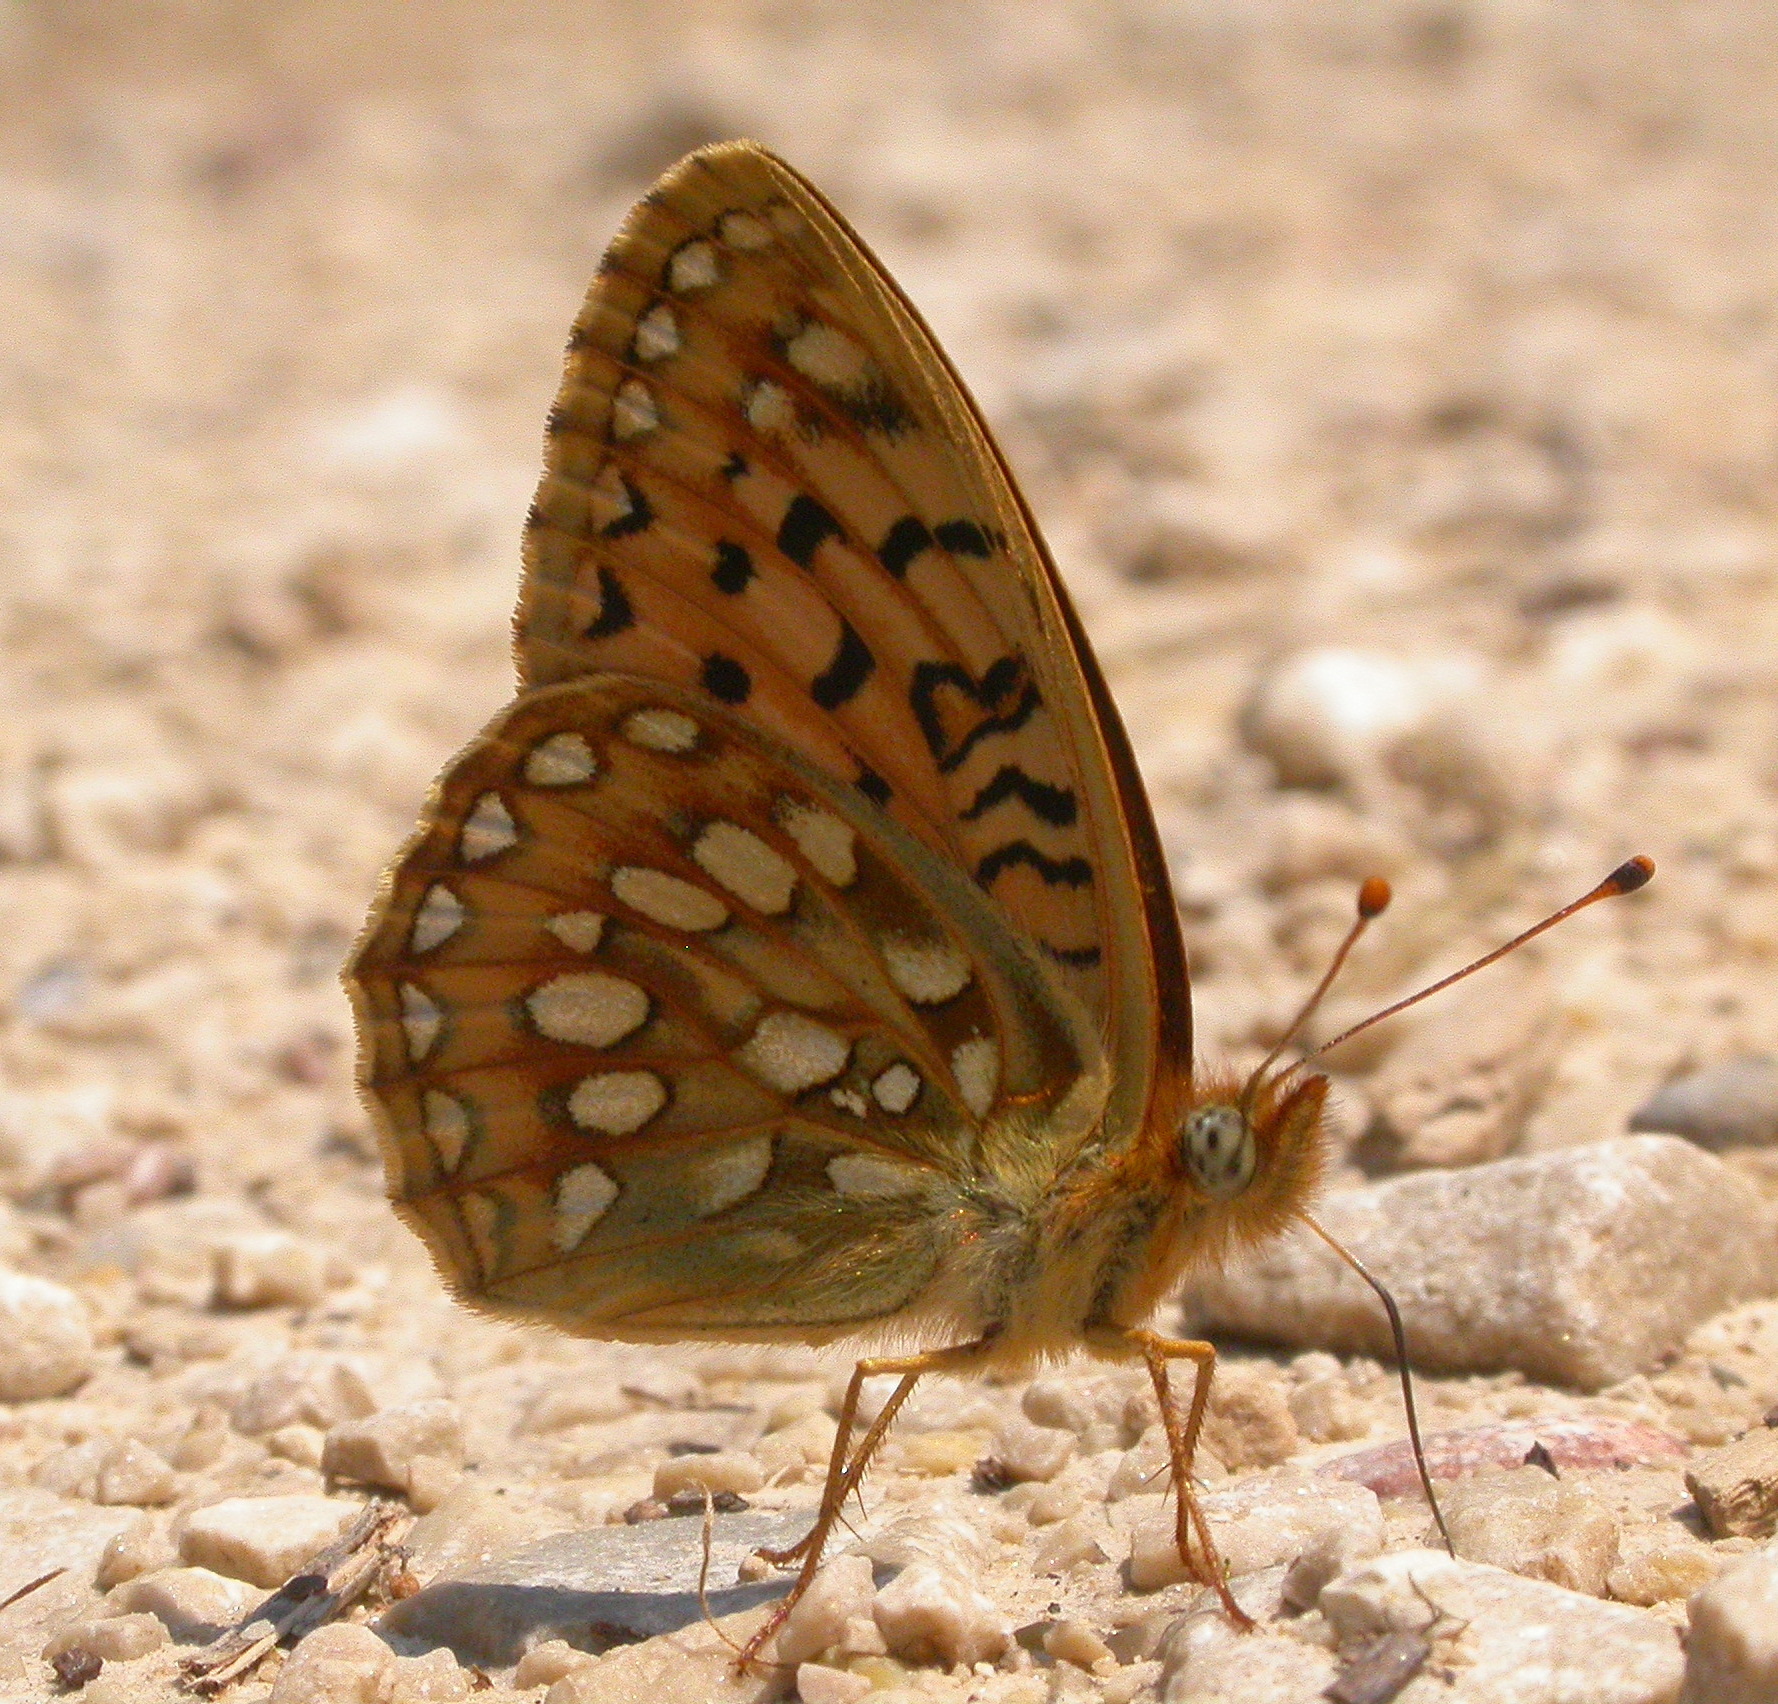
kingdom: Animalia
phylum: Arthropoda
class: Insecta
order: Lepidoptera
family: Nymphalidae
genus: Speyeria
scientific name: Speyeria mormonia
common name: Mormon fritillary
